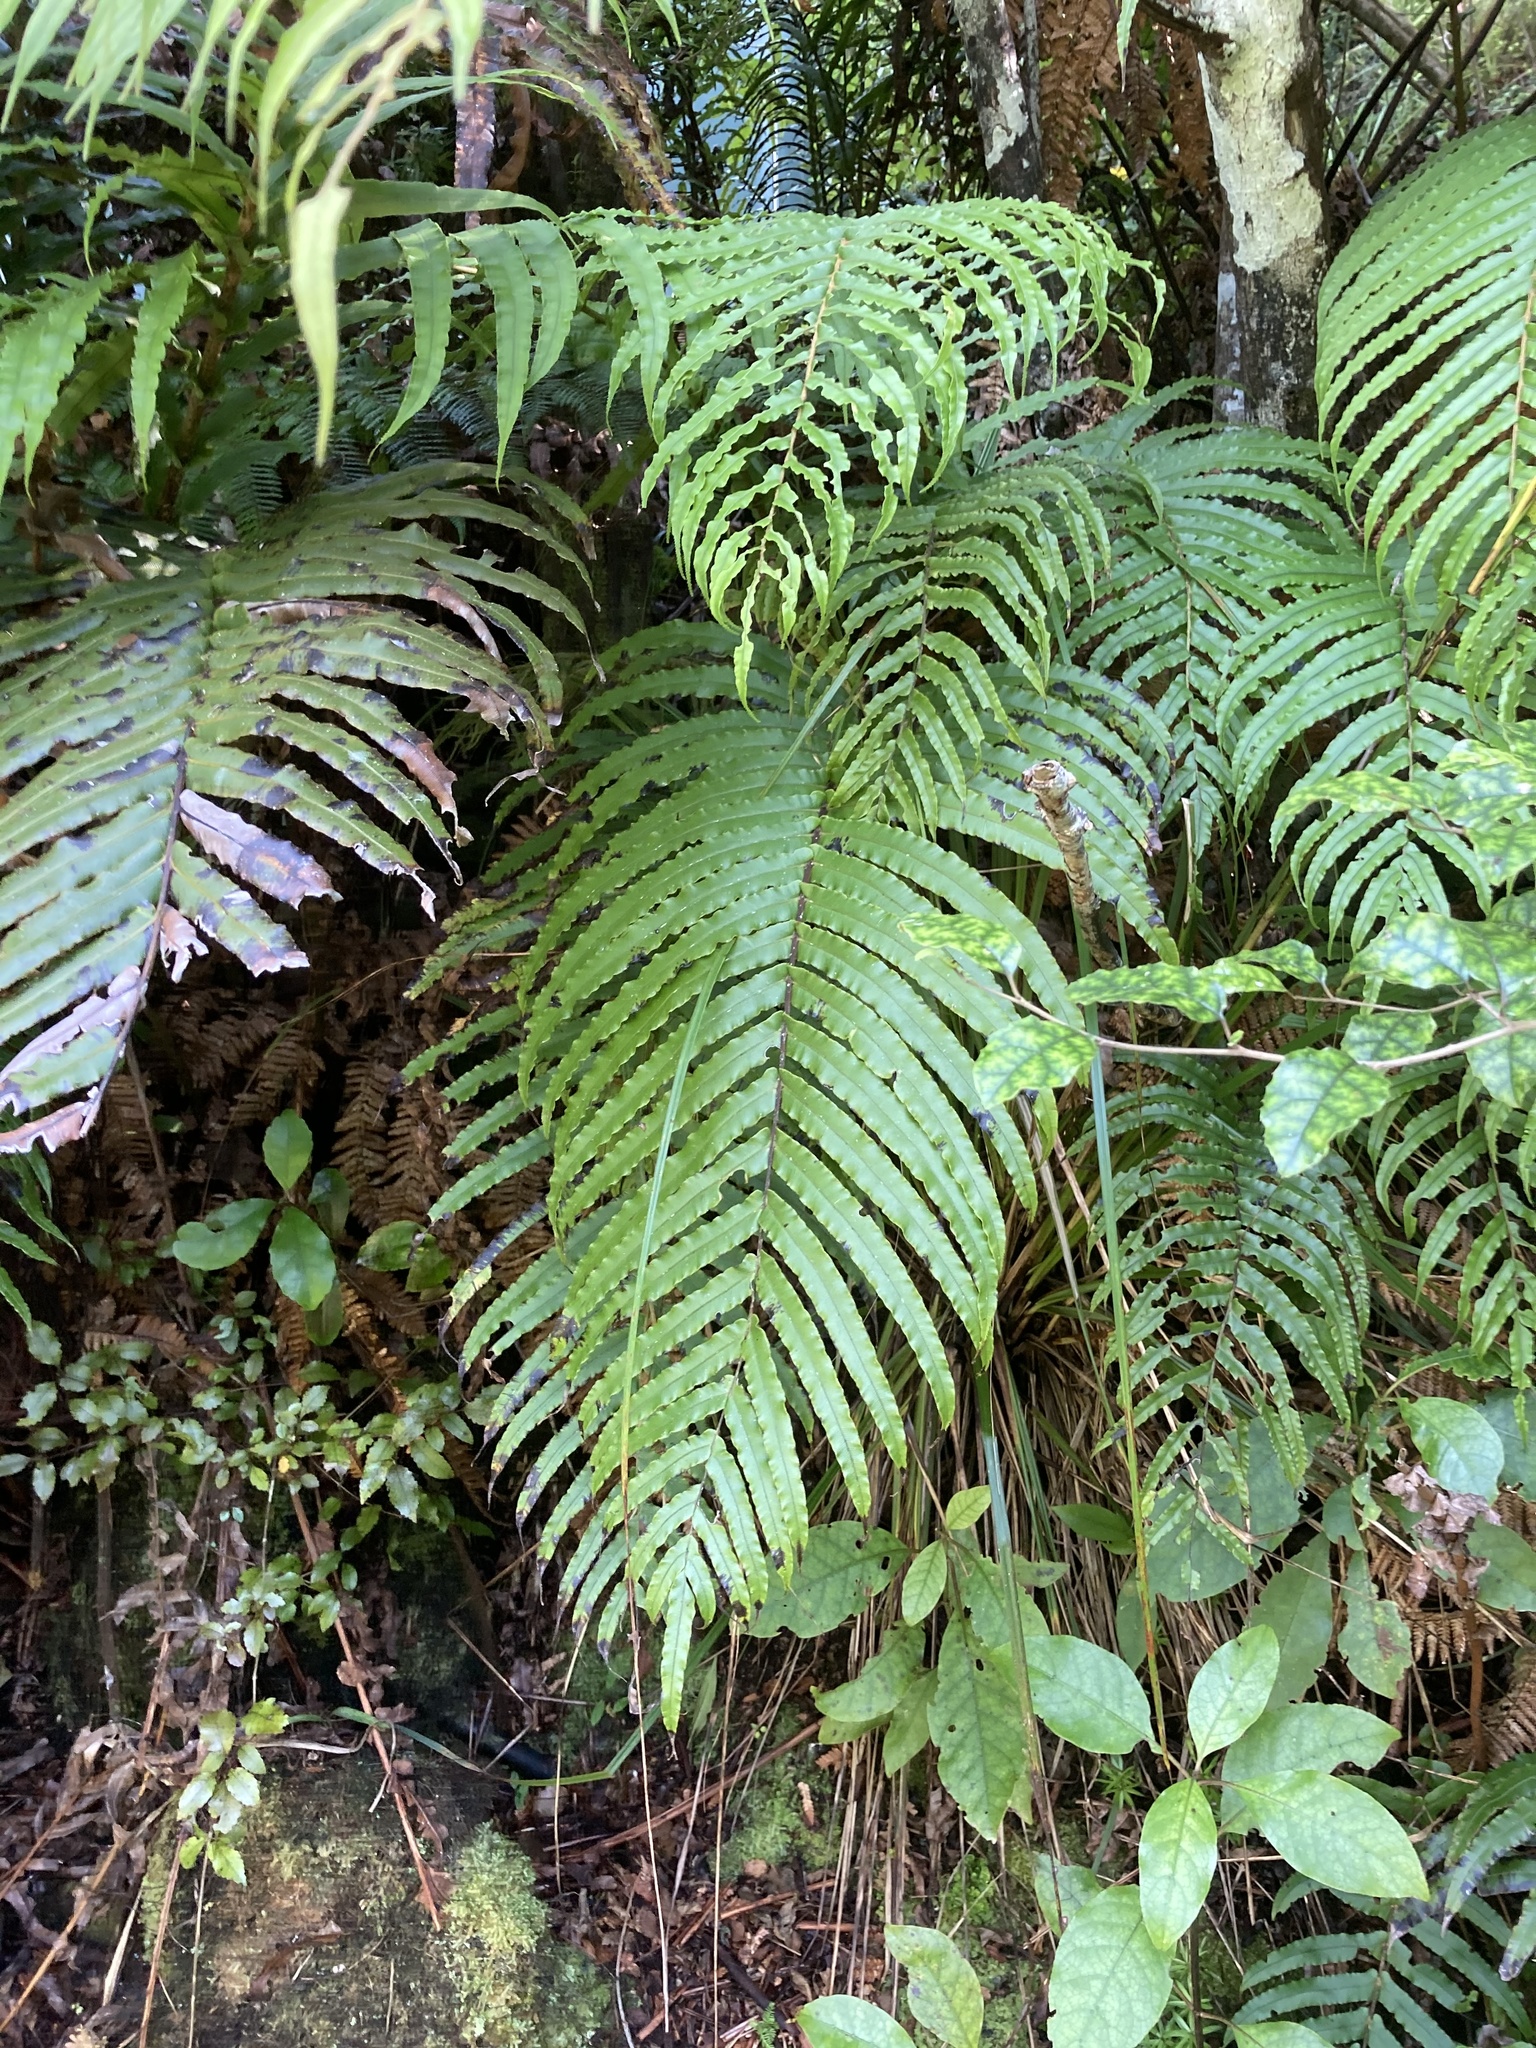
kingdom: Plantae
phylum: Tracheophyta
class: Polypodiopsida
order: Polypodiales
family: Blechnaceae
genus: Parablechnum
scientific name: Parablechnum novae-zelandiae
